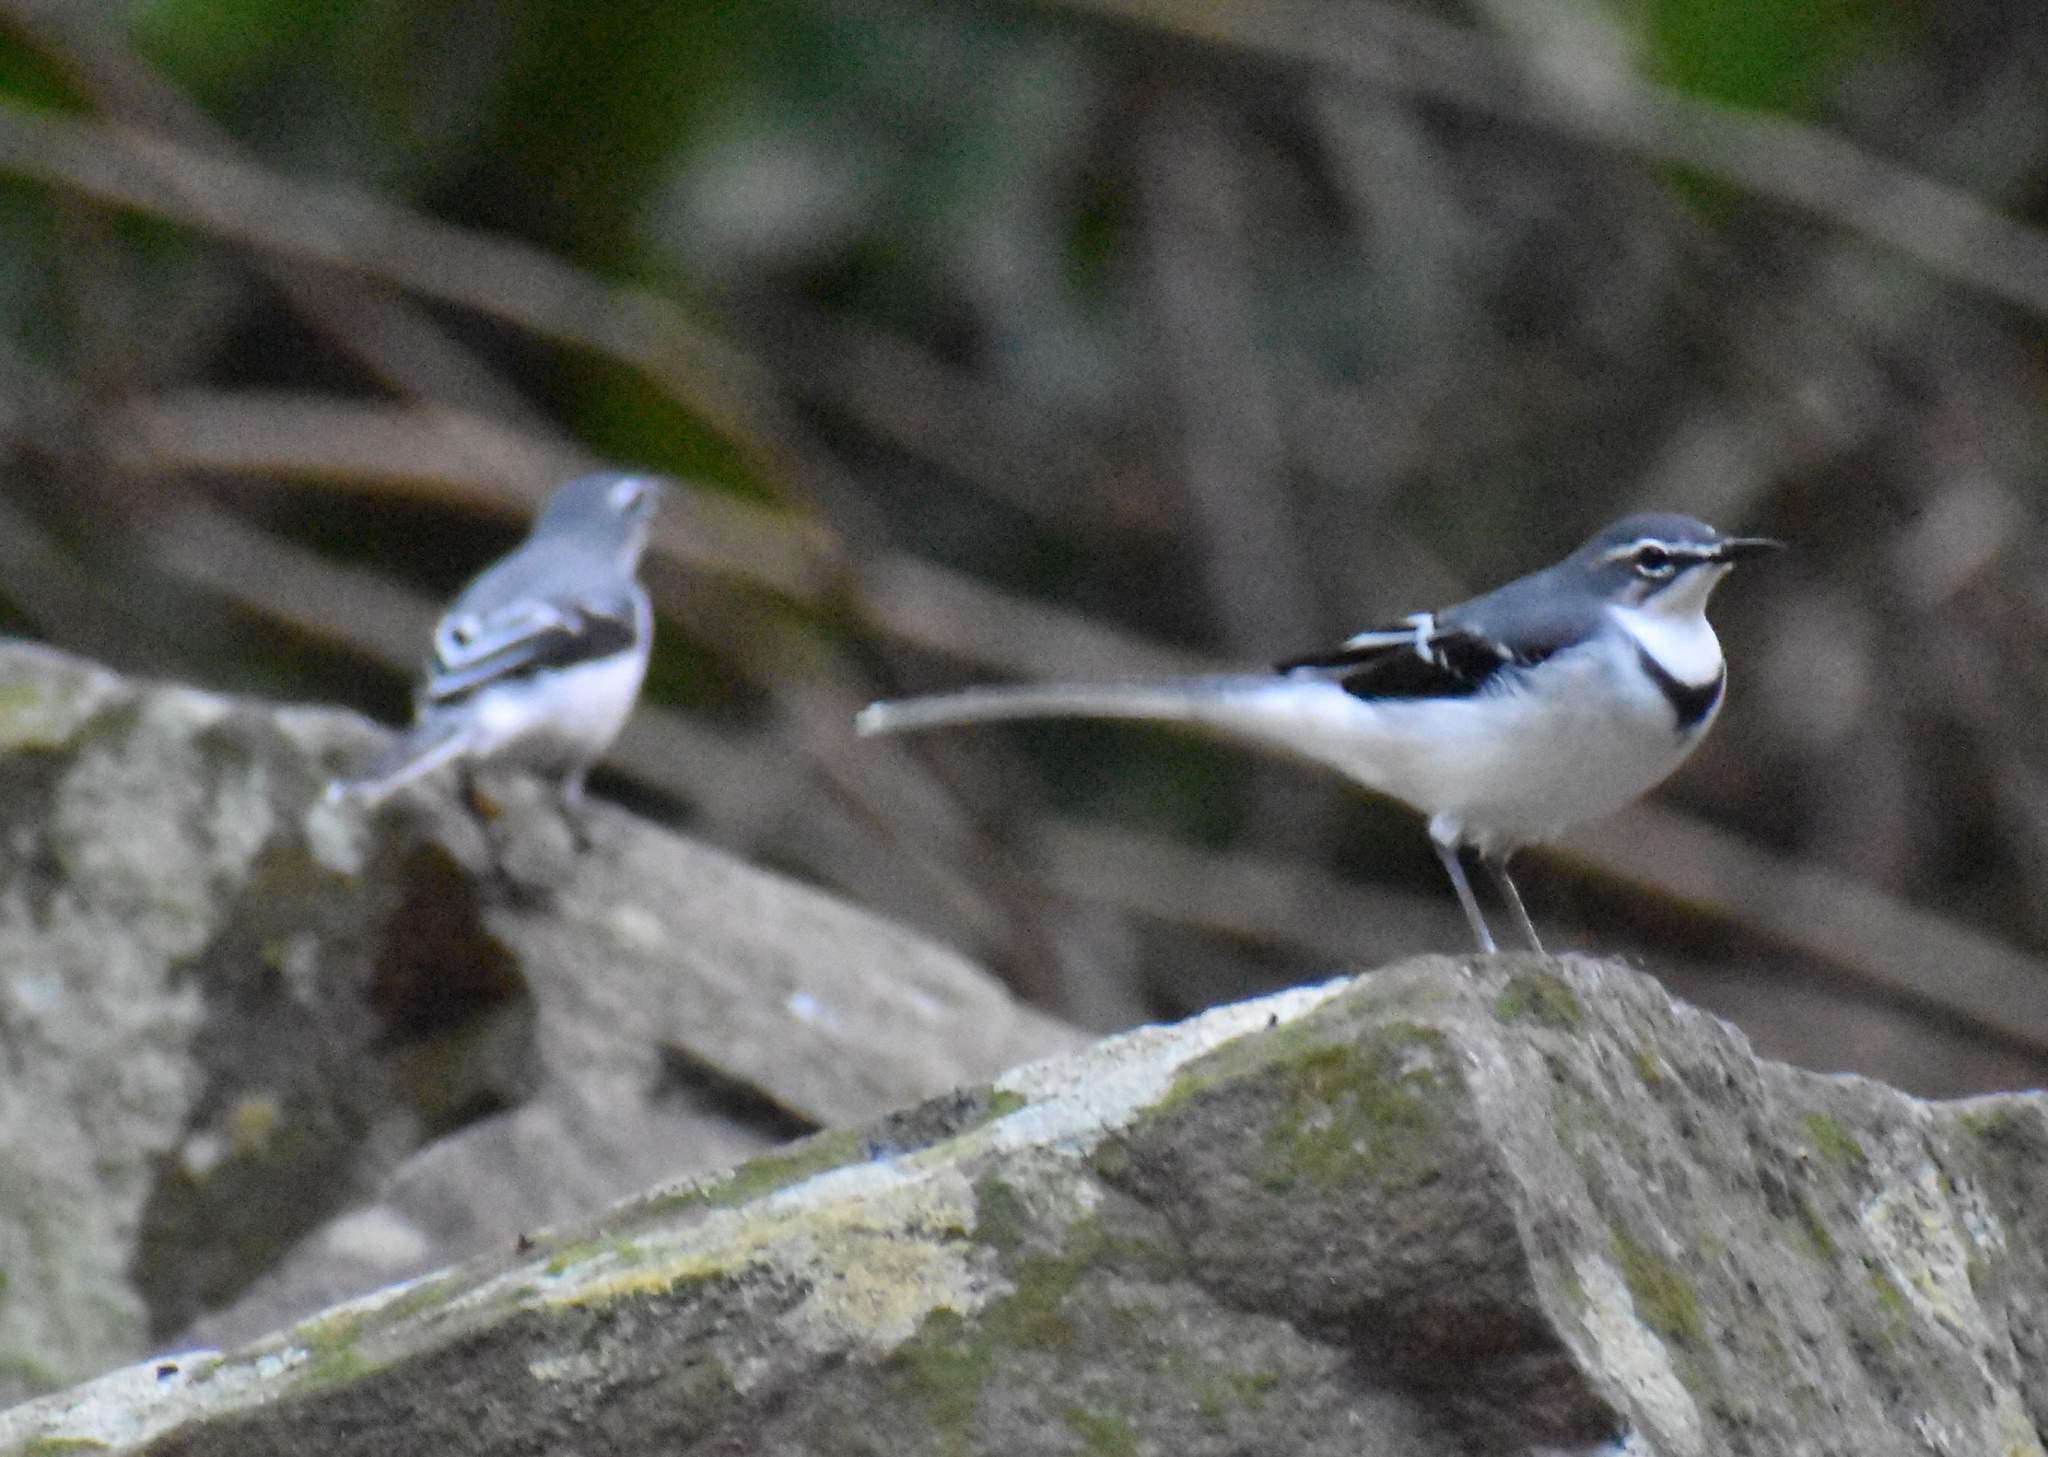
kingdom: Animalia
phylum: Chordata
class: Aves
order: Passeriformes
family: Motacillidae
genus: Motacilla
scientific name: Motacilla clara
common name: Mountain wagtail
